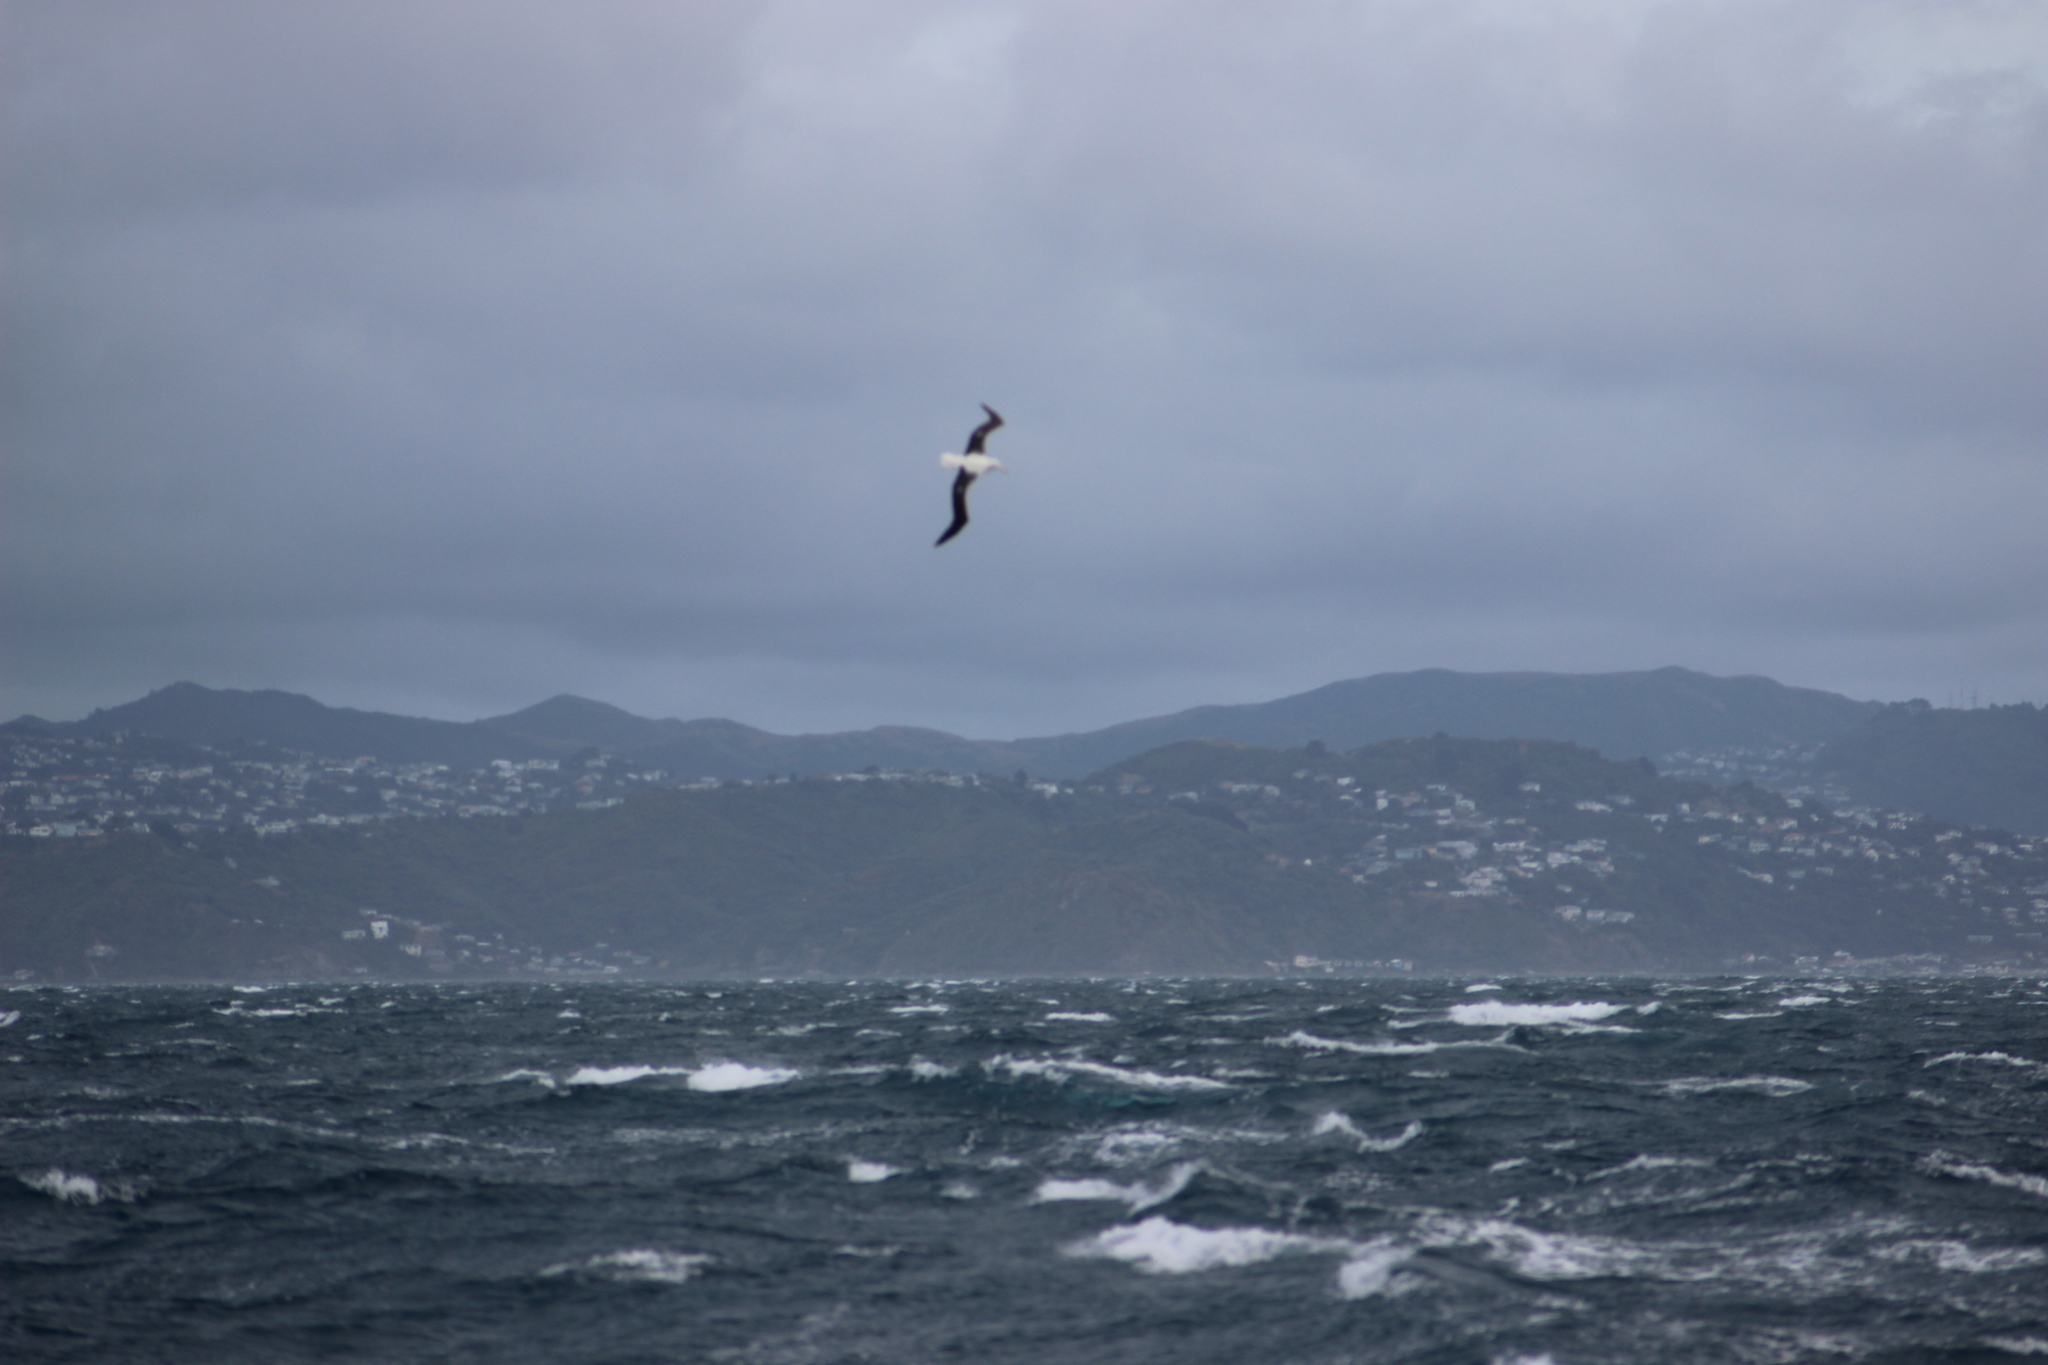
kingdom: Animalia
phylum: Chordata
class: Aves
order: Procellariiformes
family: Diomedeidae
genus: Diomedea
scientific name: Diomedea sanfordi
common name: Northern royal albatross
